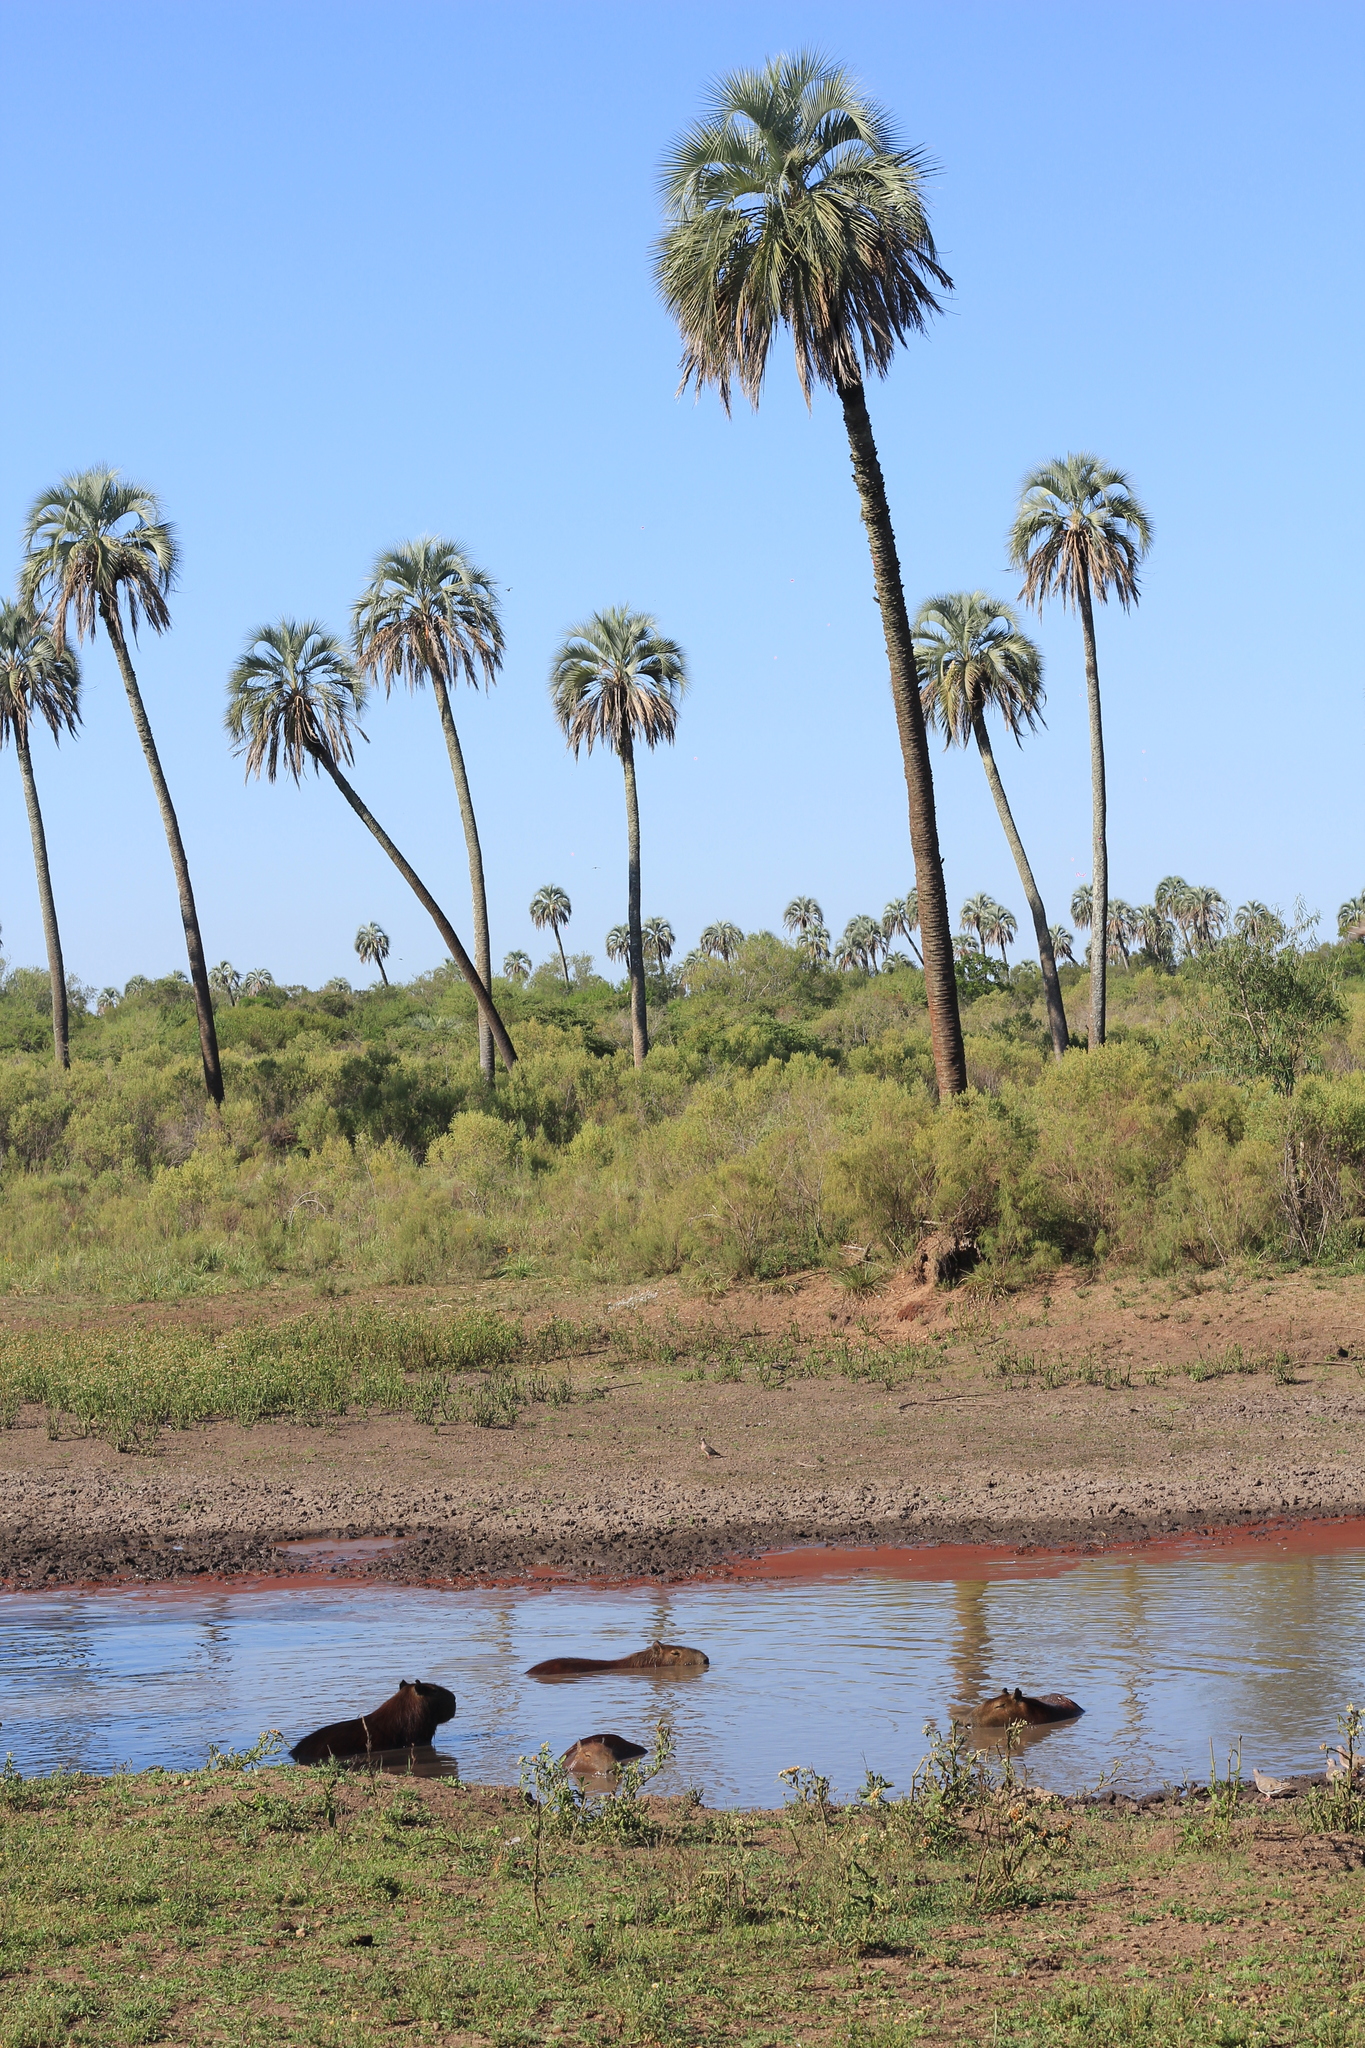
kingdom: Animalia
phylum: Chordata
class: Mammalia
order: Rodentia
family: Caviidae
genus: Hydrochoerus
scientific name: Hydrochoerus hydrochaeris
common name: Capybara
